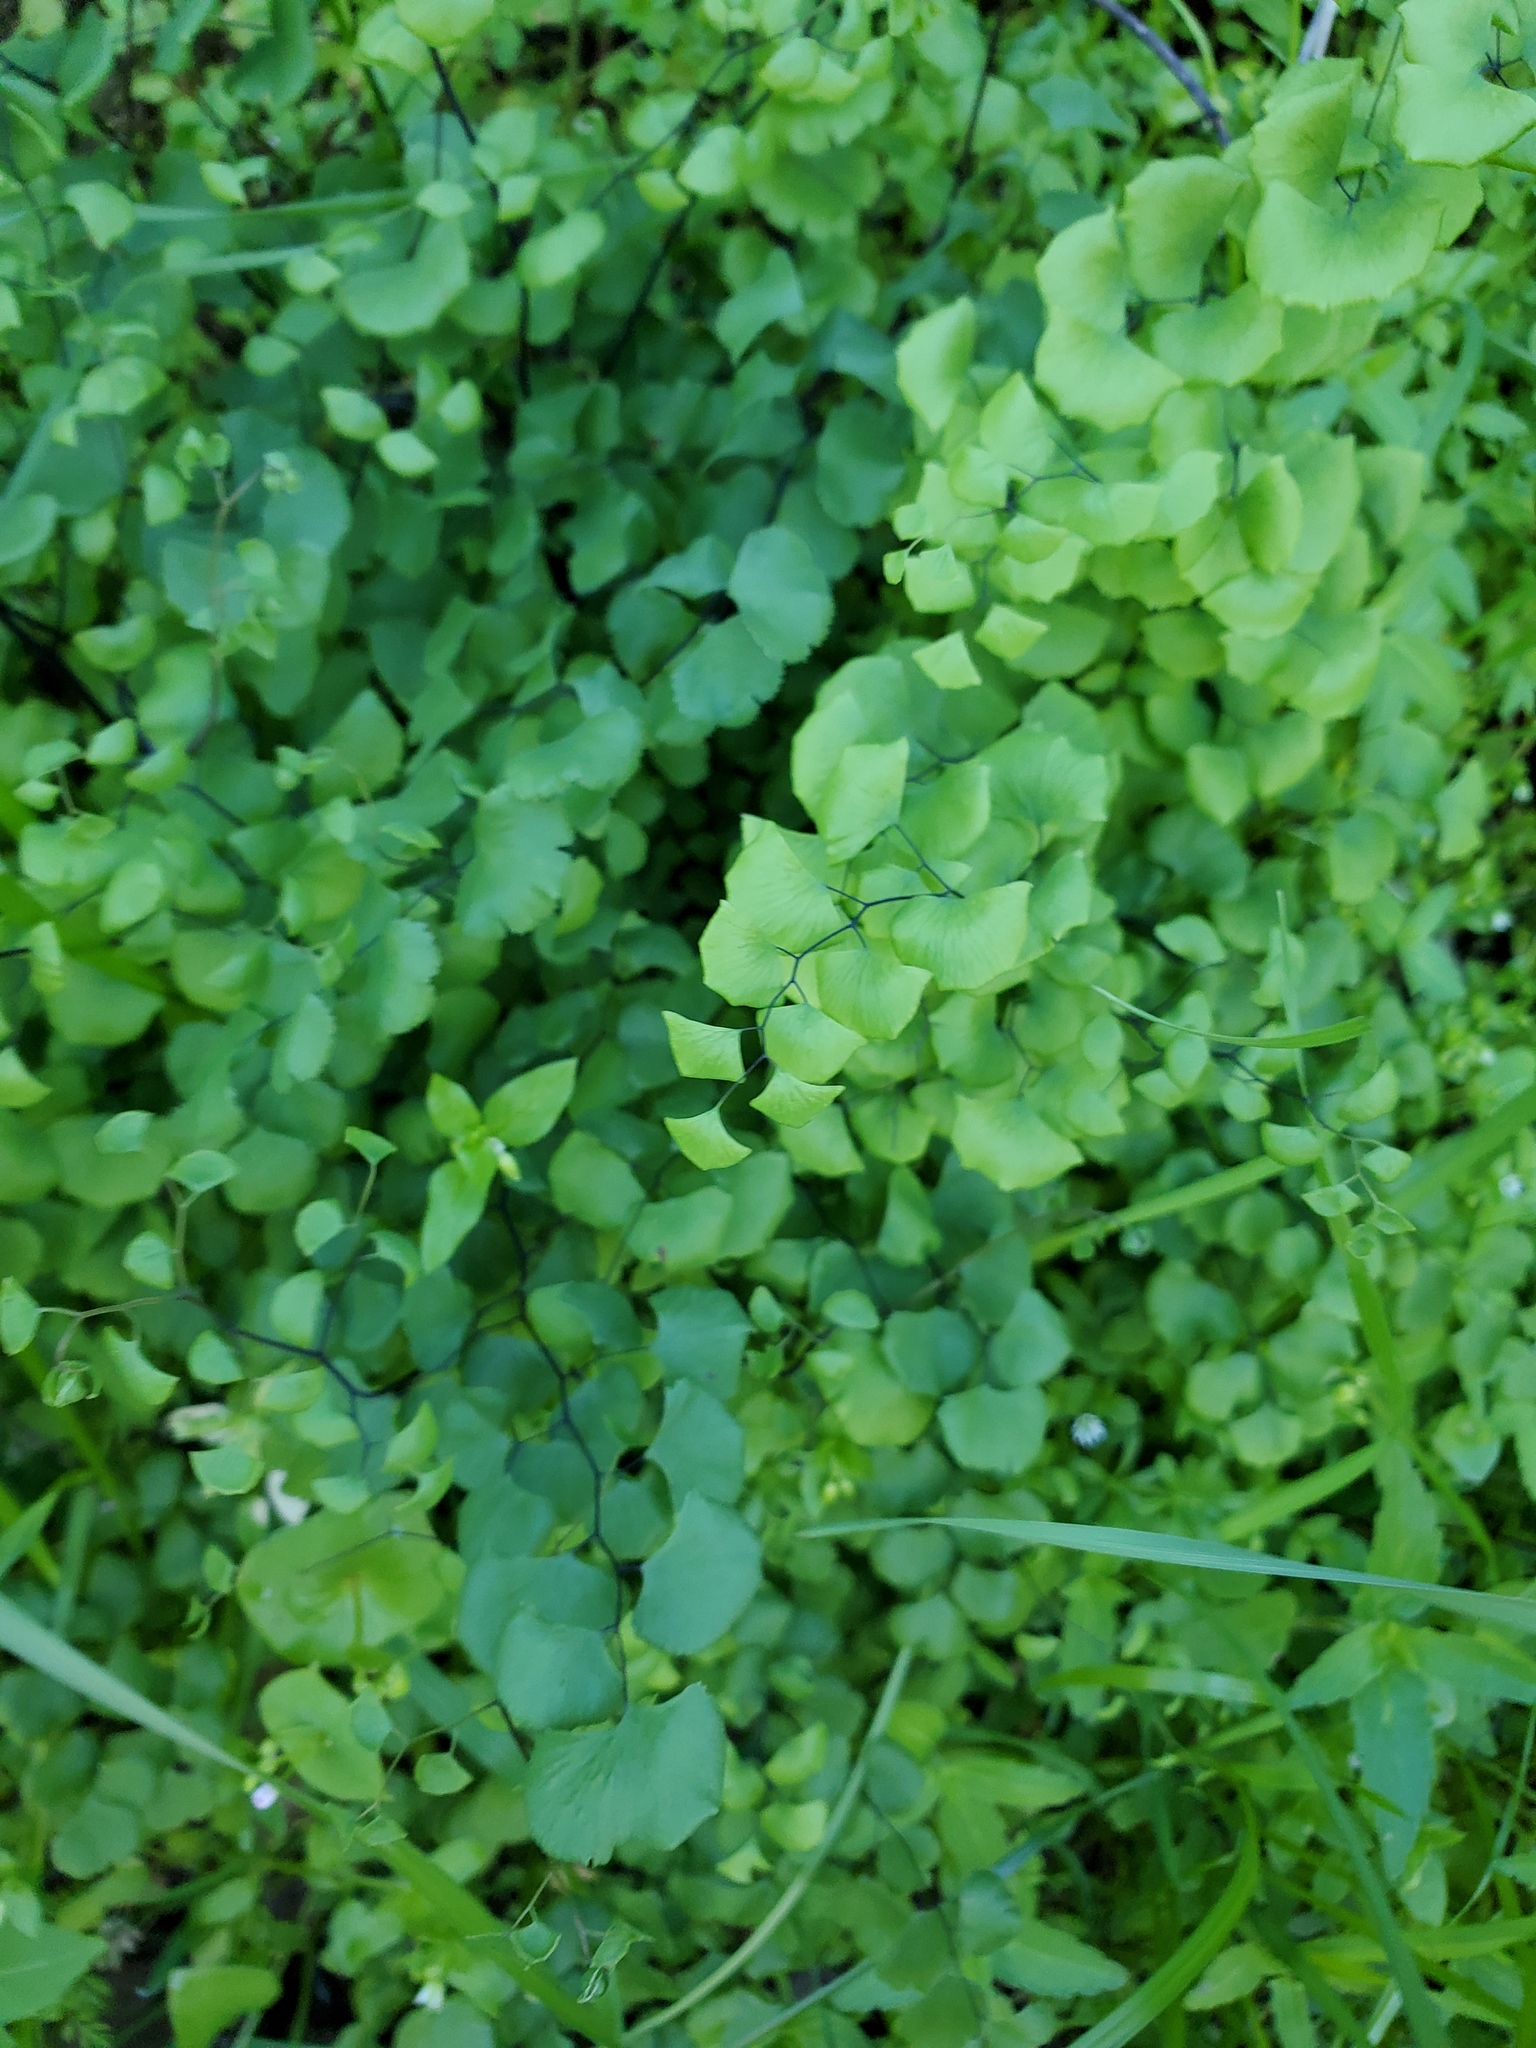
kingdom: Plantae
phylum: Tracheophyta
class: Polypodiopsida
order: Polypodiales
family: Pteridaceae
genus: Adiantum
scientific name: Adiantum jordanii
